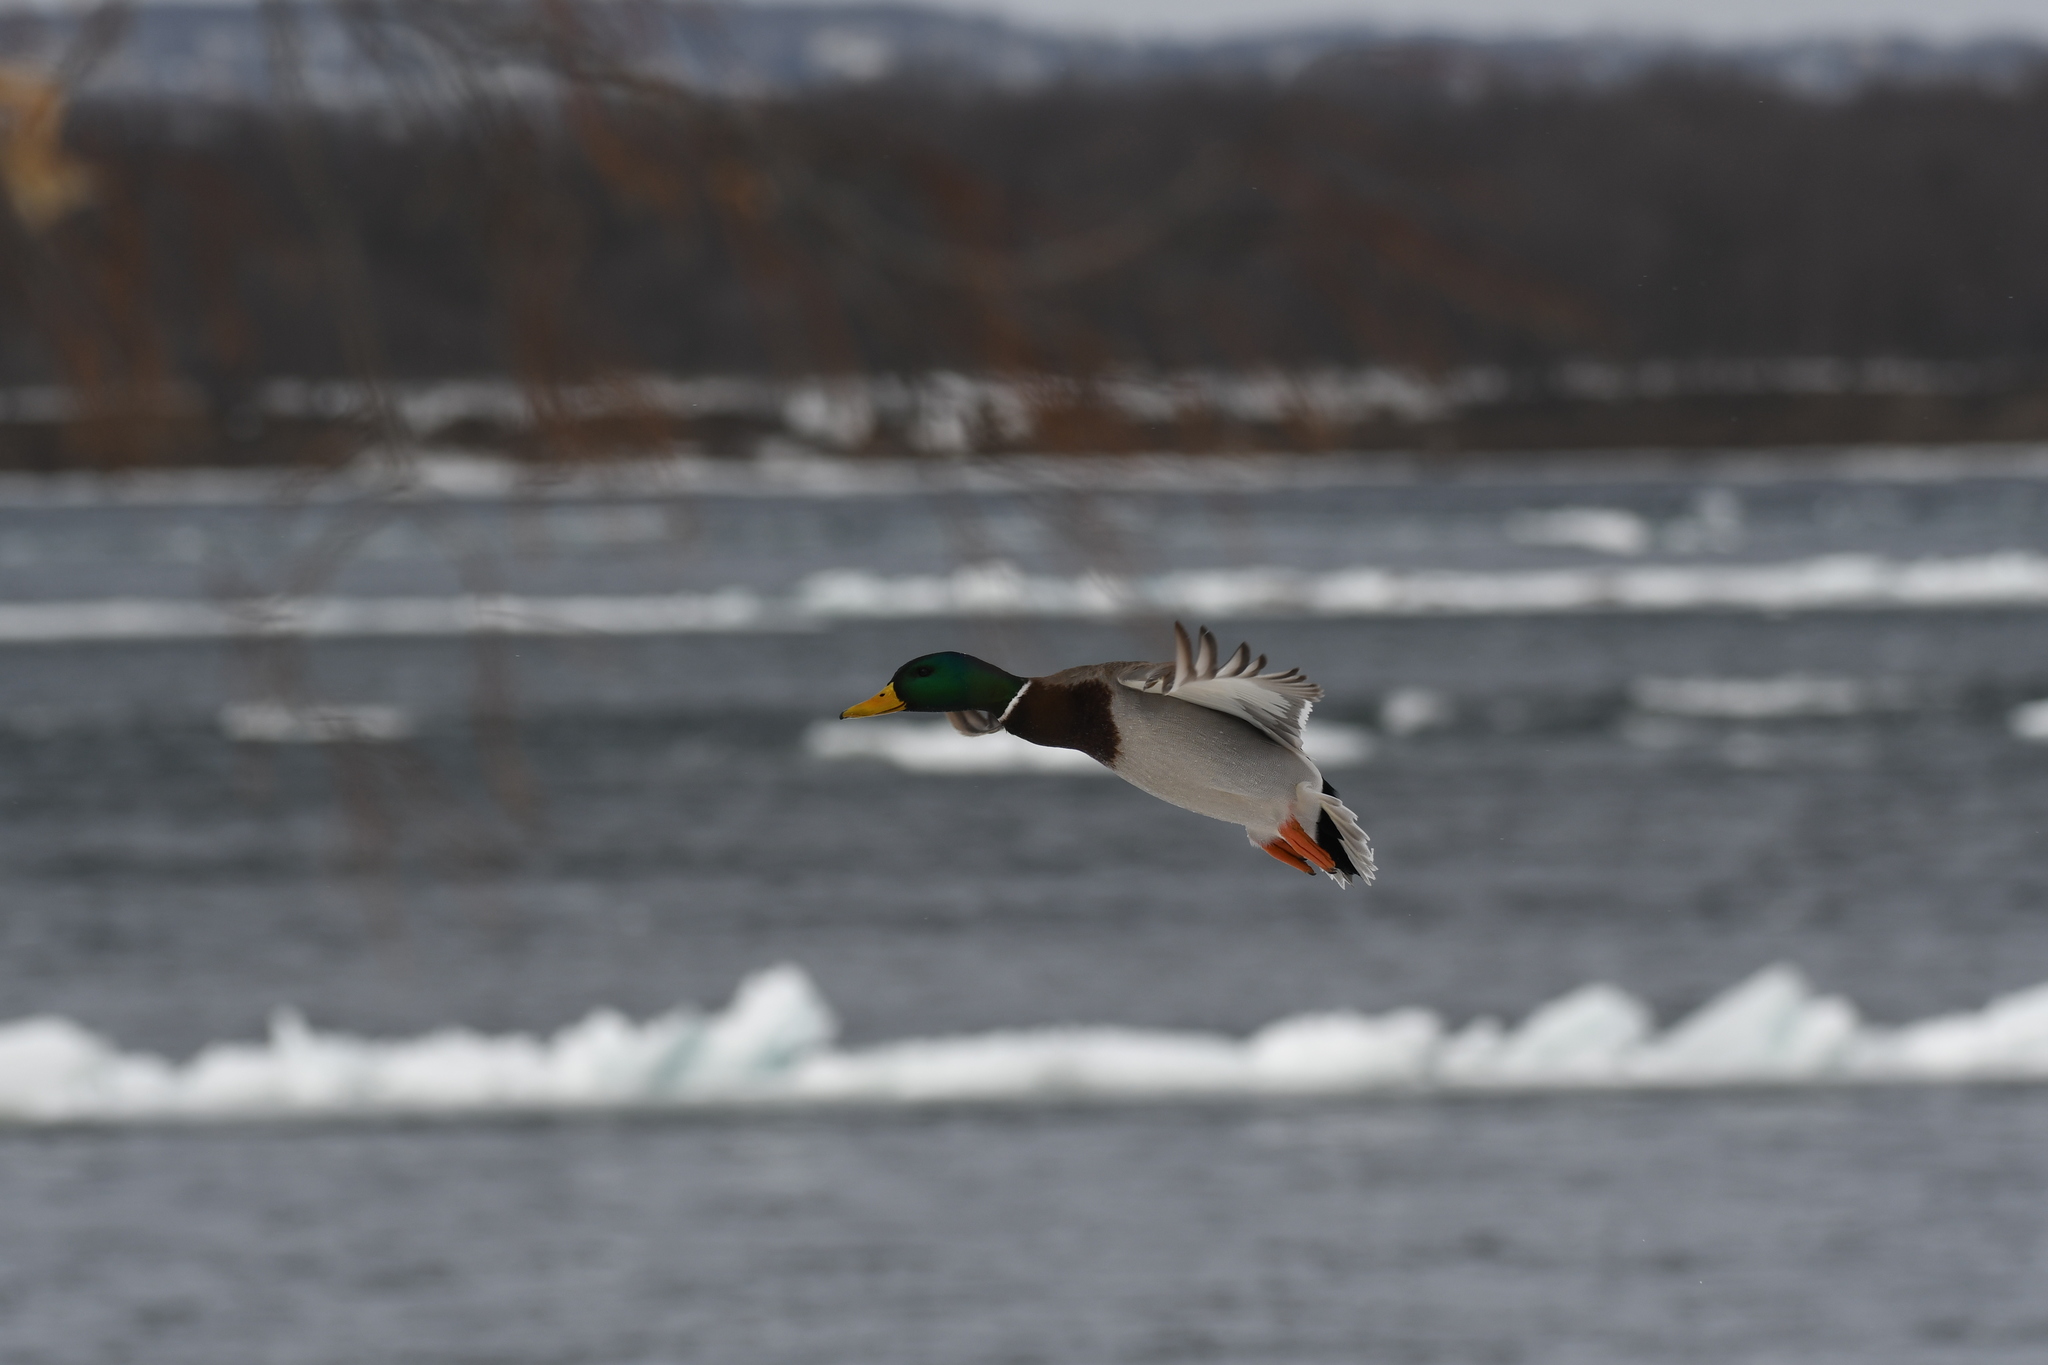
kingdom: Animalia
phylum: Chordata
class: Aves
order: Anseriformes
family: Anatidae
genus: Anas
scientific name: Anas platyrhynchos
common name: Mallard
